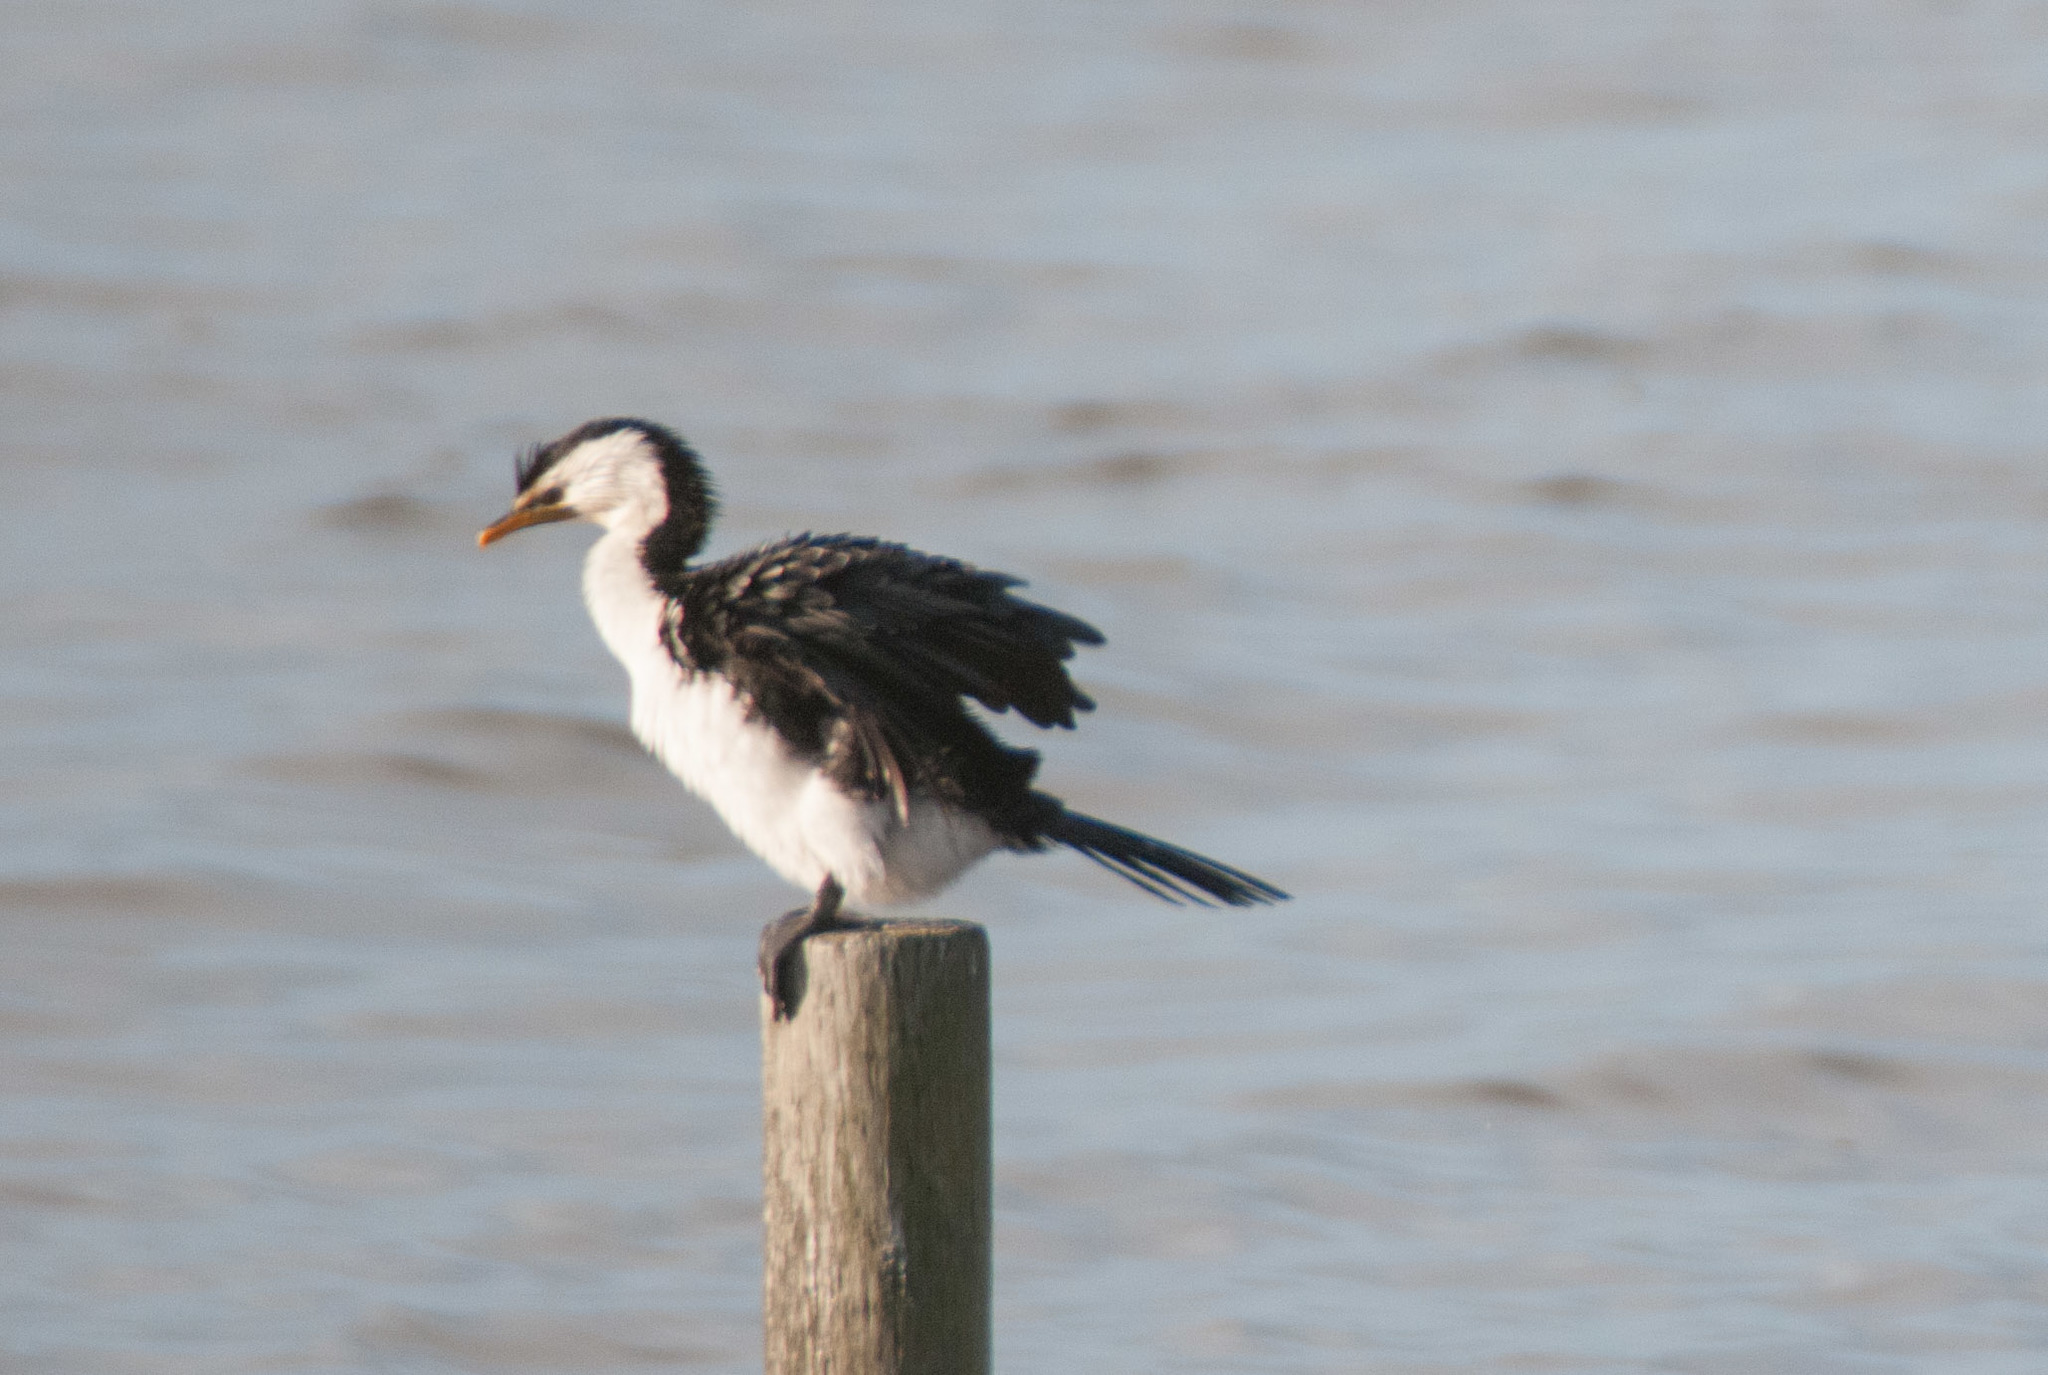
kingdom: Animalia
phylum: Chordata
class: Aves
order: Suliformes
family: Phalacrocoracidae
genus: Microcarbo
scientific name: Microcarbo melanoleucos
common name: Little pied cormorant
